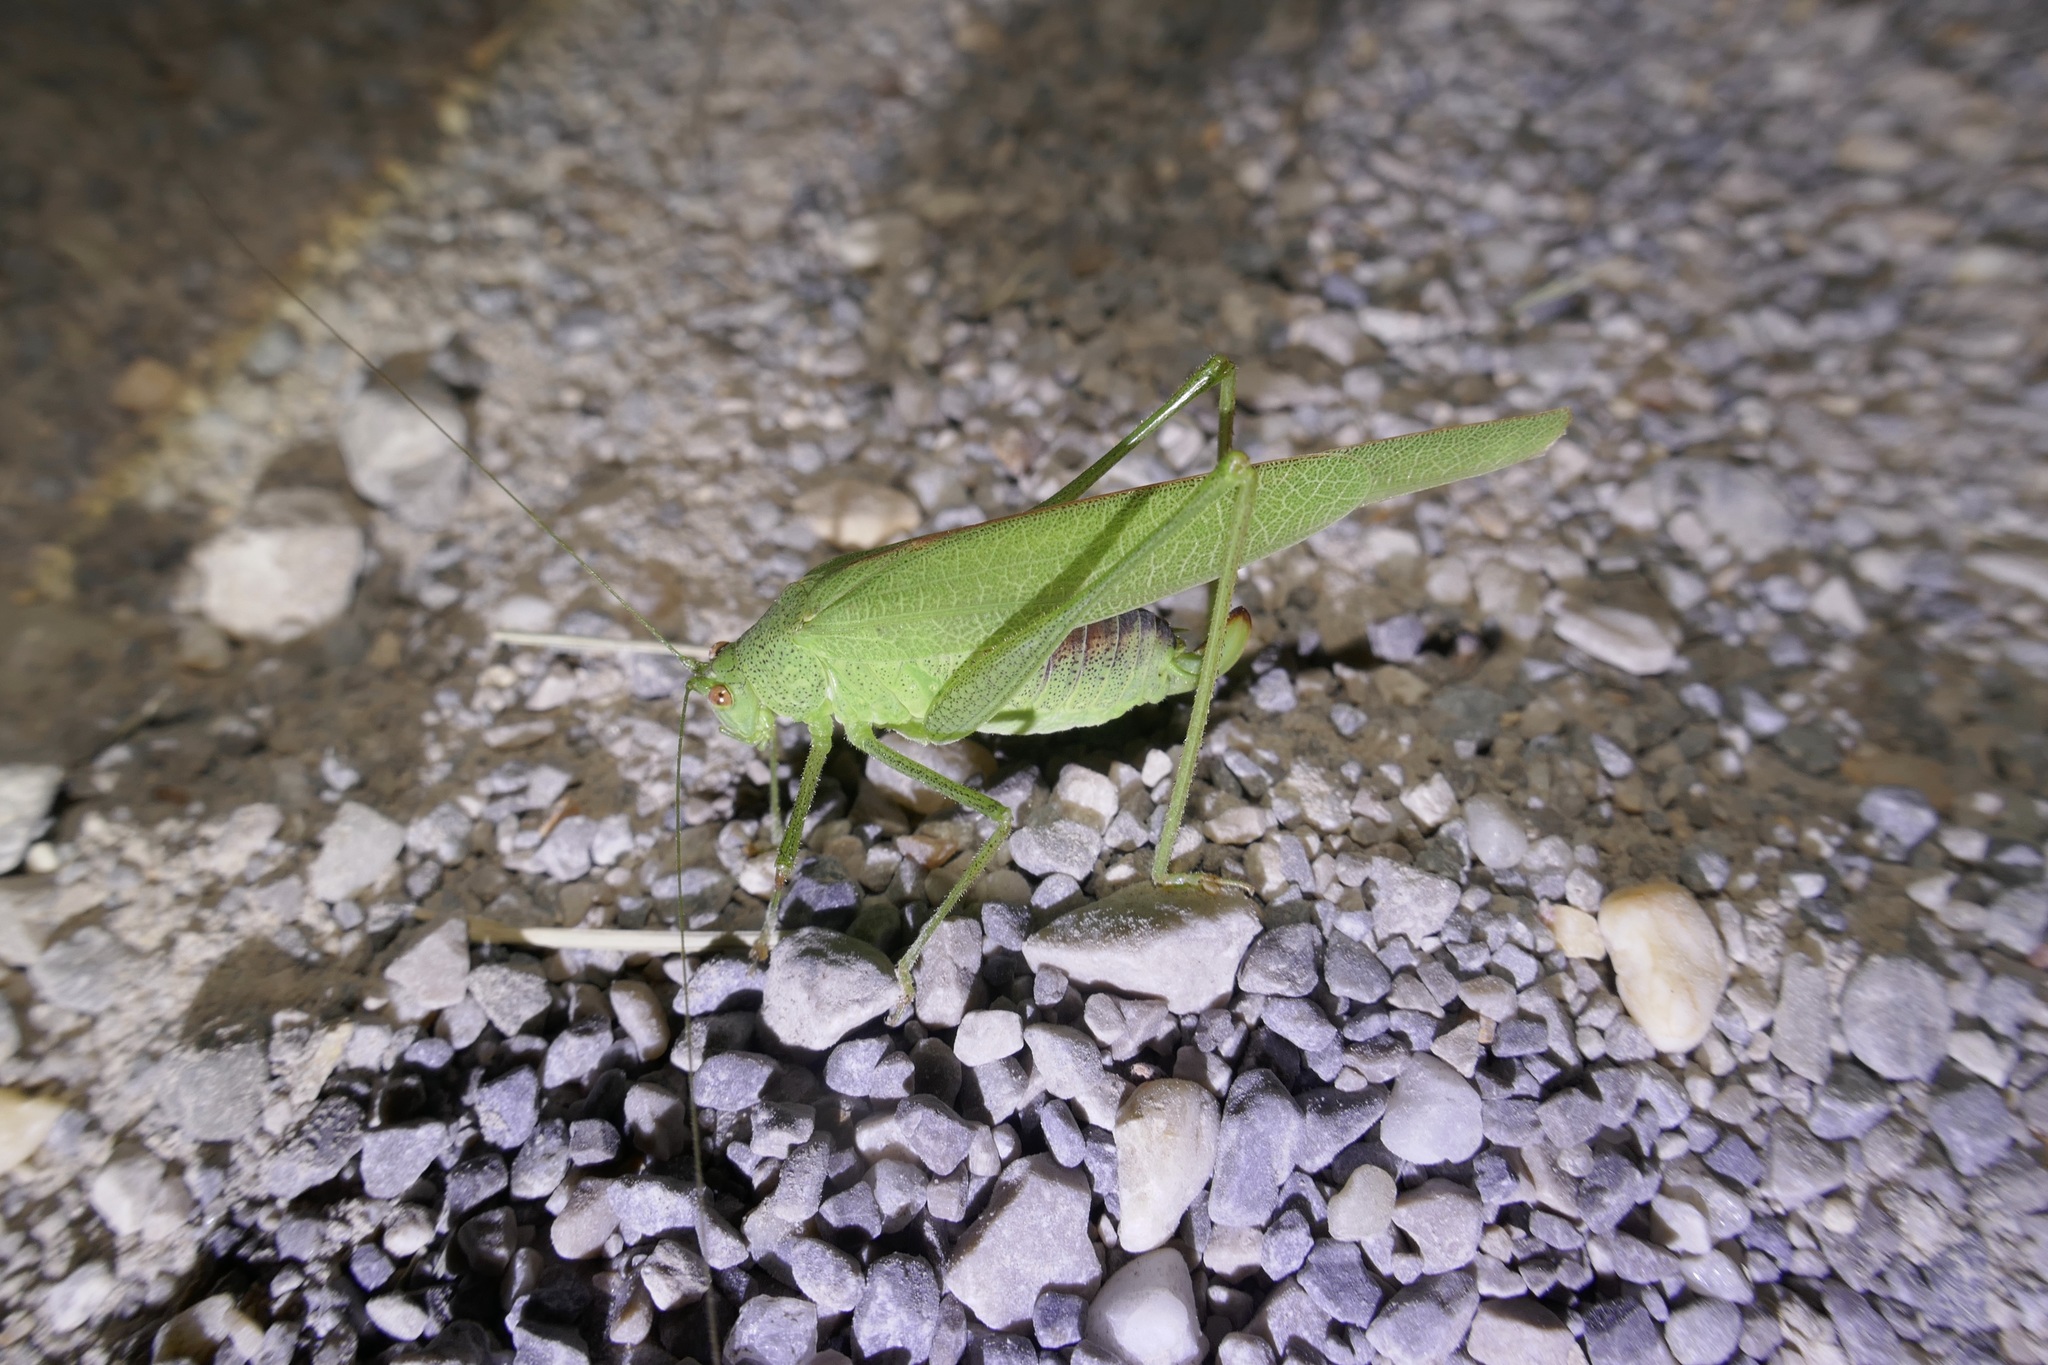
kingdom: Animalia
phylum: Arthropoda
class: Insecta
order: Orthoptera
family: Tettigoniidae
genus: Phaneroptera
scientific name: Phaneroptera nana
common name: Southern sickle bush-cricket
